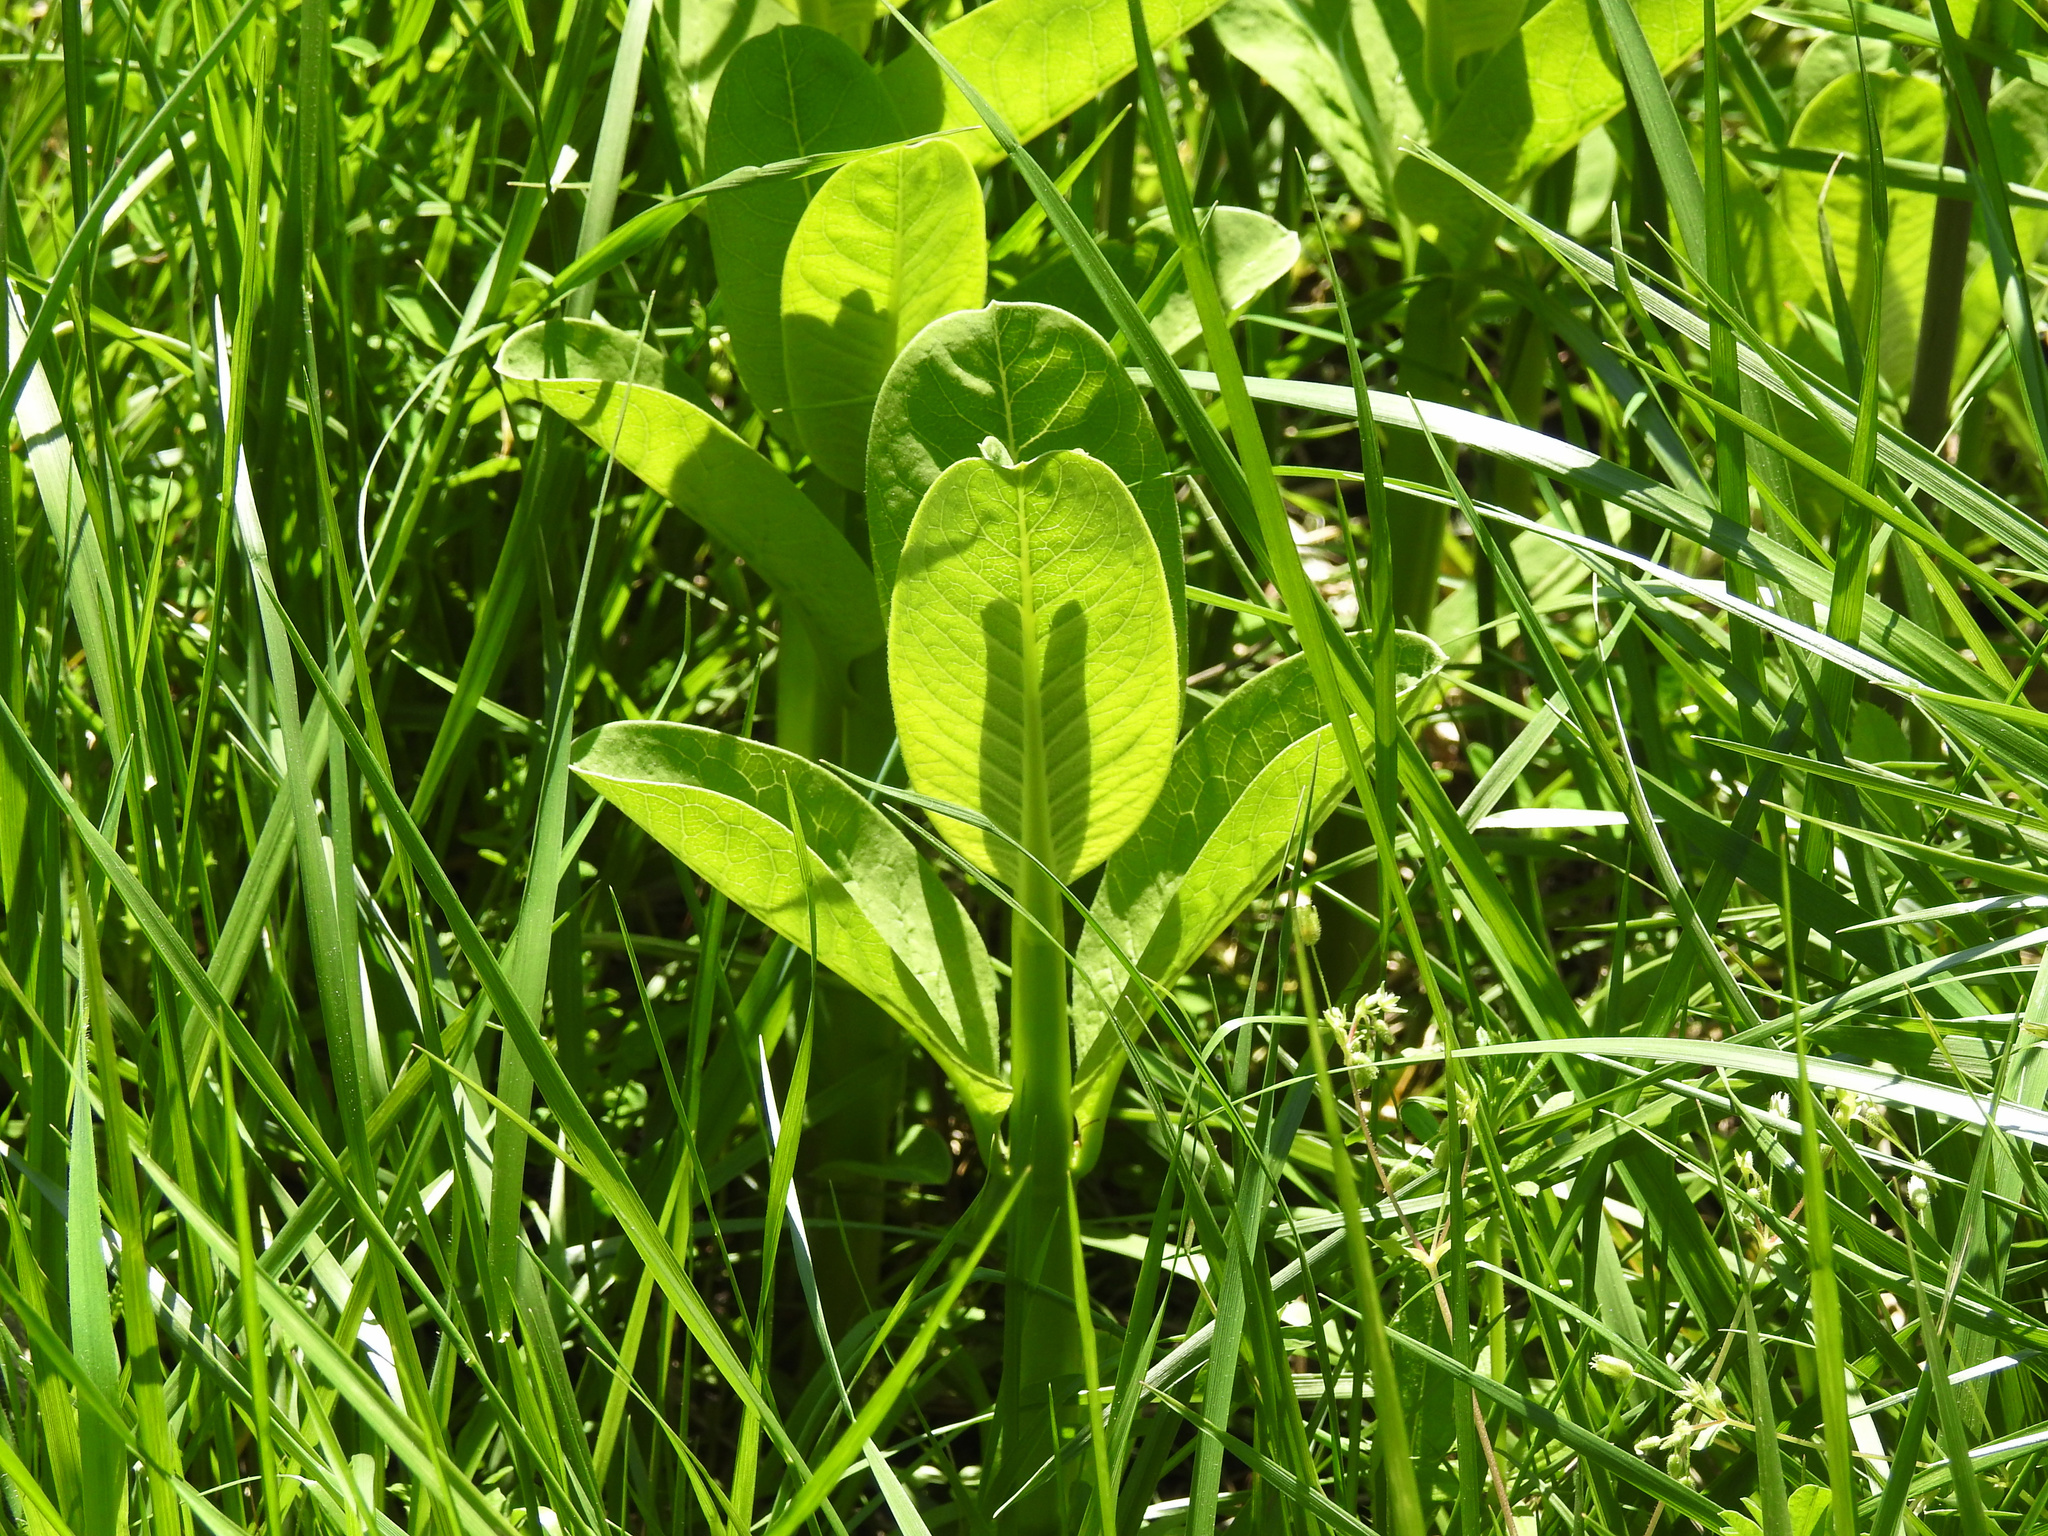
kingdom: Plantae
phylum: Tracheophyta
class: Magnoliopsida
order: Gentianales
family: Apocynaceae
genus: Asclepias
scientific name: Asclepias syriaca
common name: Common milkweed
